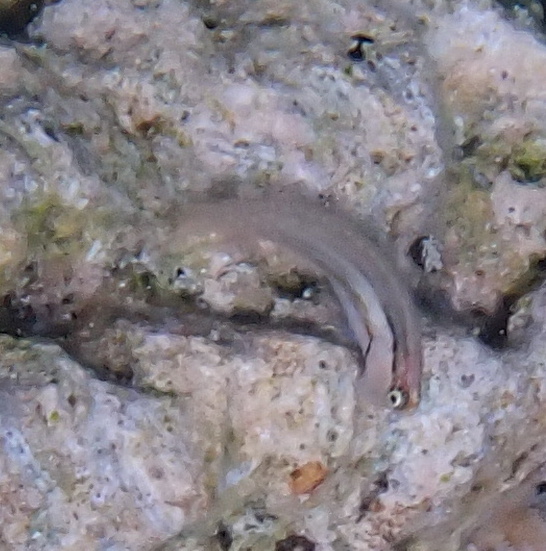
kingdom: Animalia
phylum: Chordata
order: Perciformes
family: Blenniidae
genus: Ecsenius
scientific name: Ecsenius dentex
